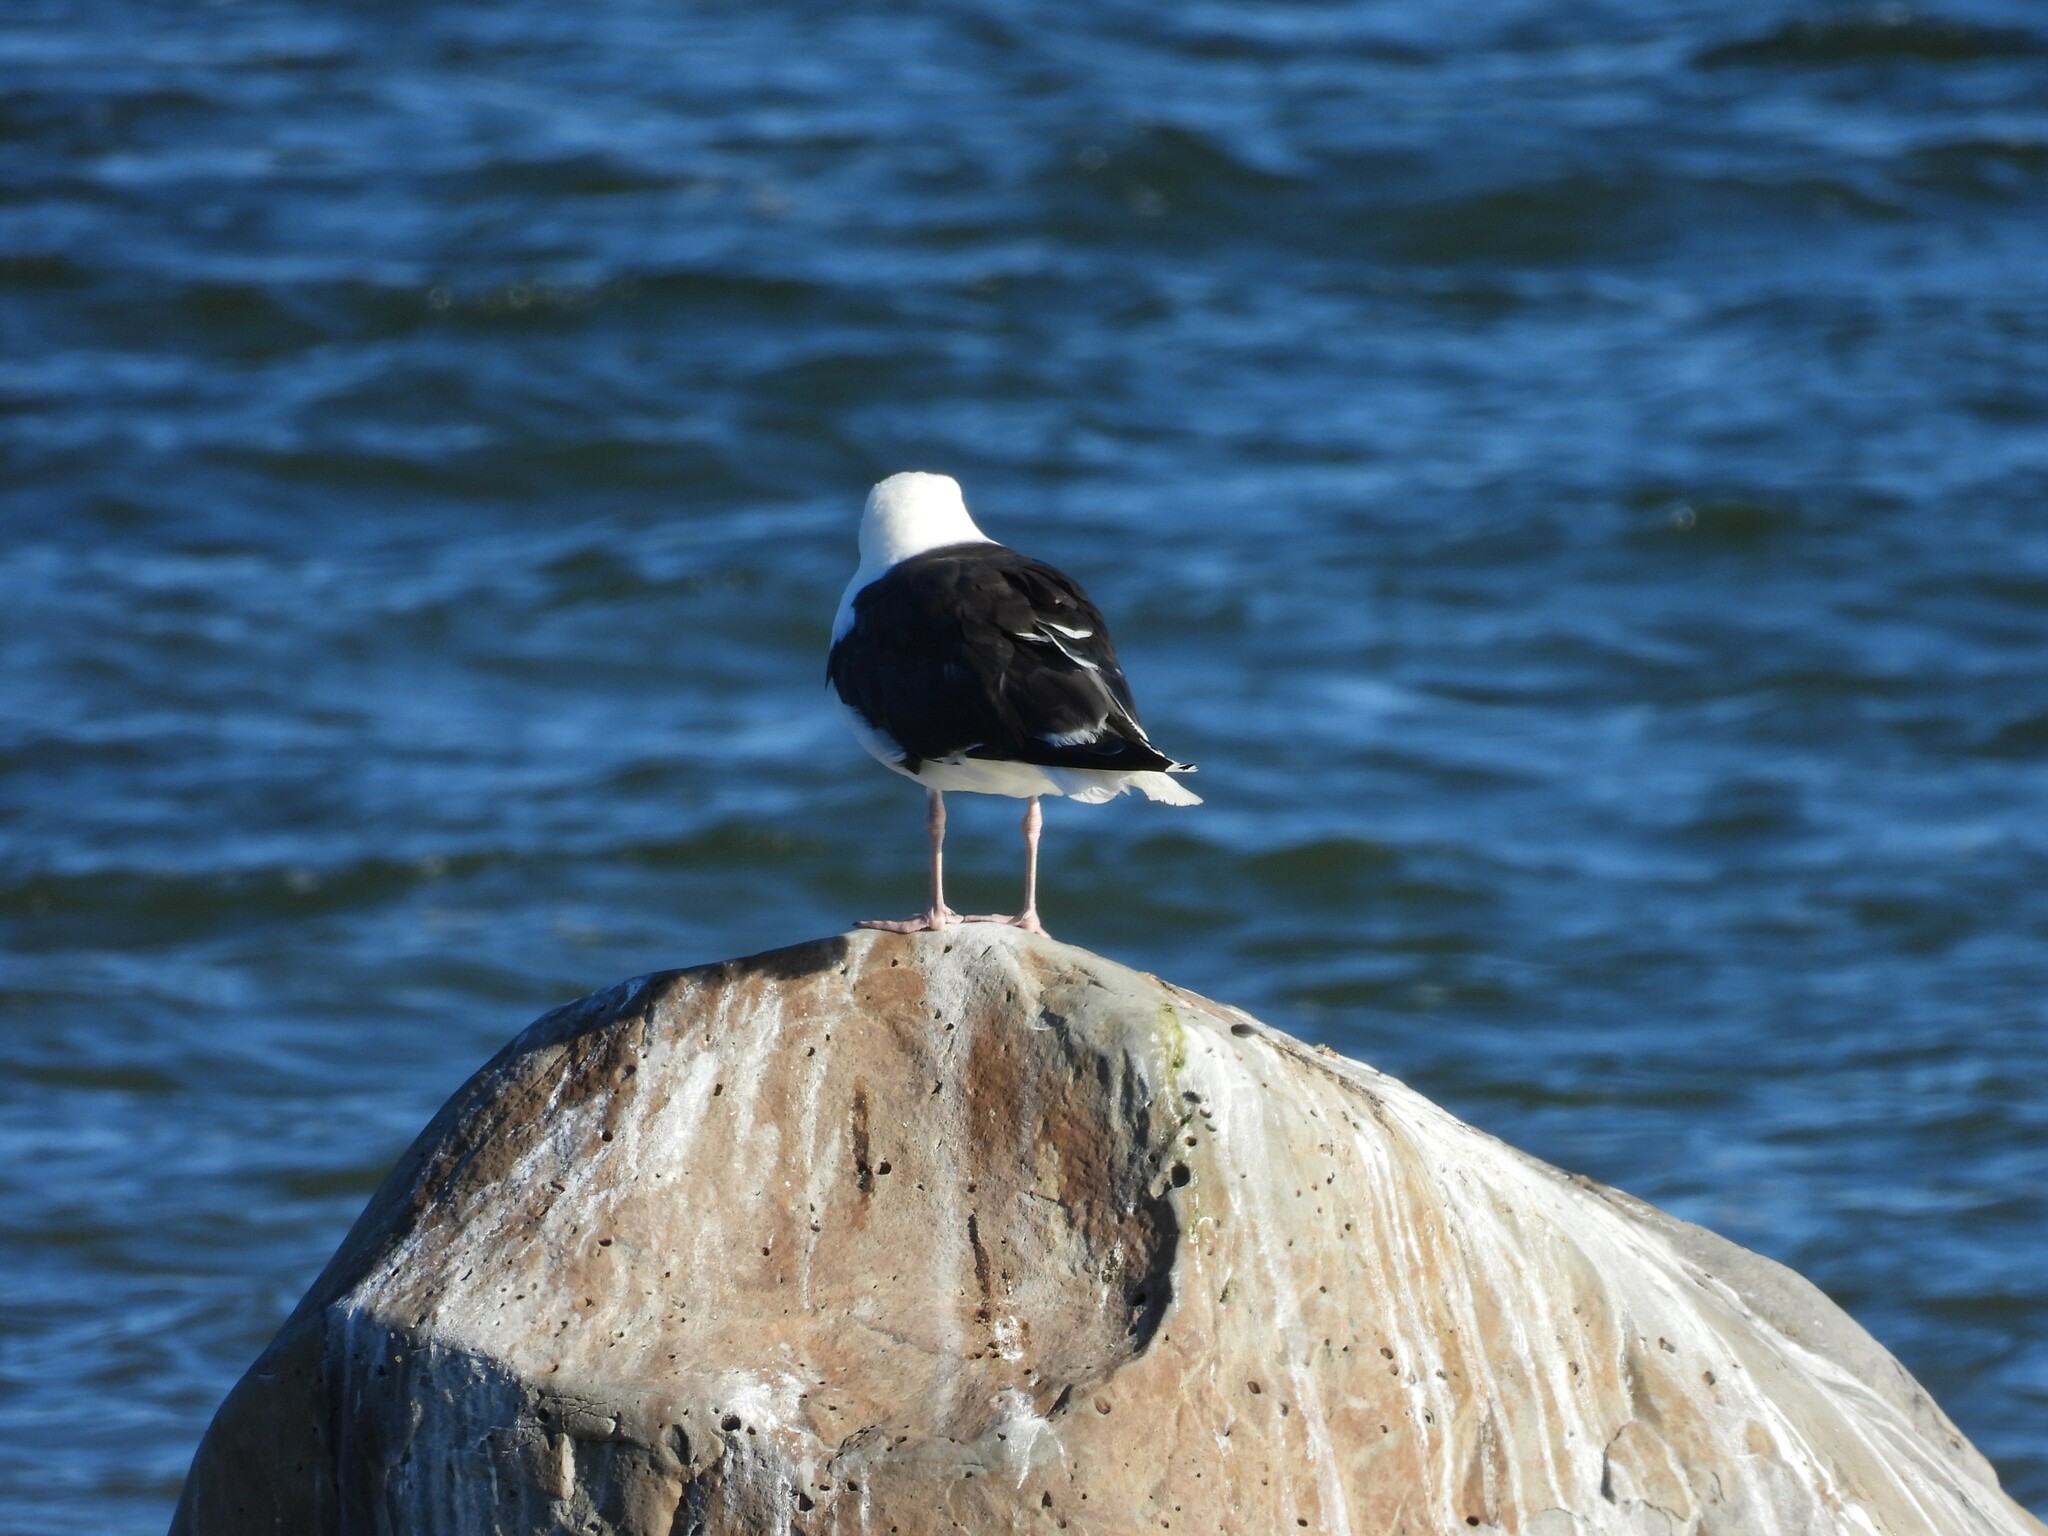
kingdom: Animalia
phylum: Chordata
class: Aves
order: Charadriiformes
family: Laridae
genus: Larus
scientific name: Larus marinus
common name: Great black-backed gull
